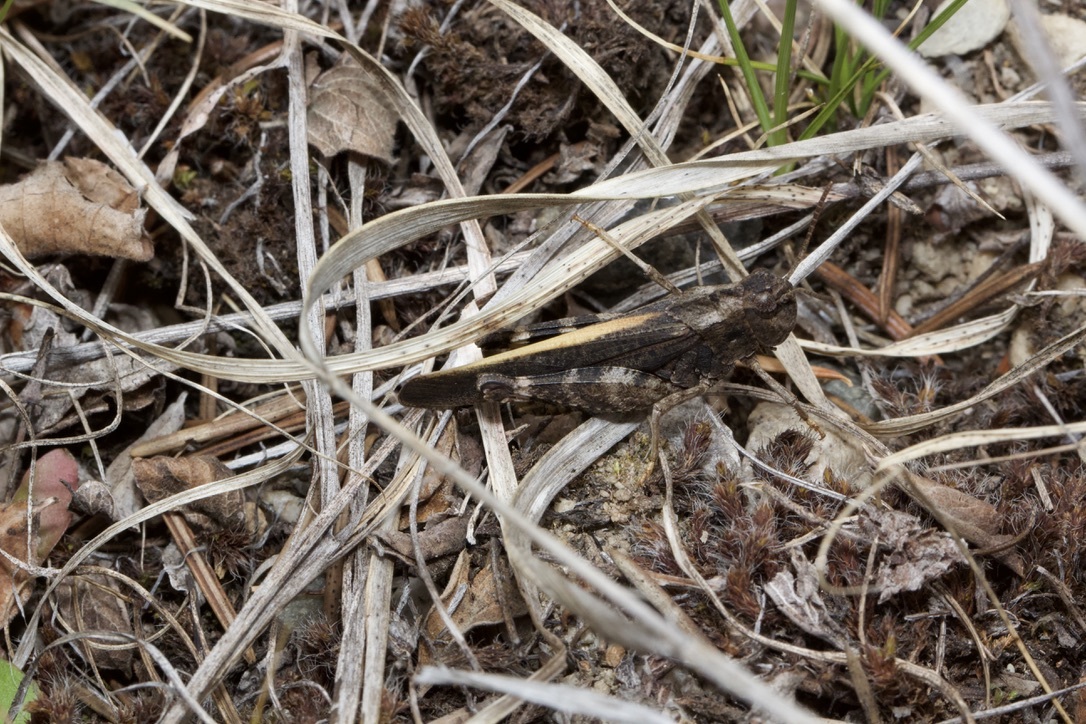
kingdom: Animalia
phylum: Arthropoda
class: Insecta
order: Orthoptera
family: Acrididae
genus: Arphia
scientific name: Arphia conspersa
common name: Speckle-winged rangeland grasshopper
